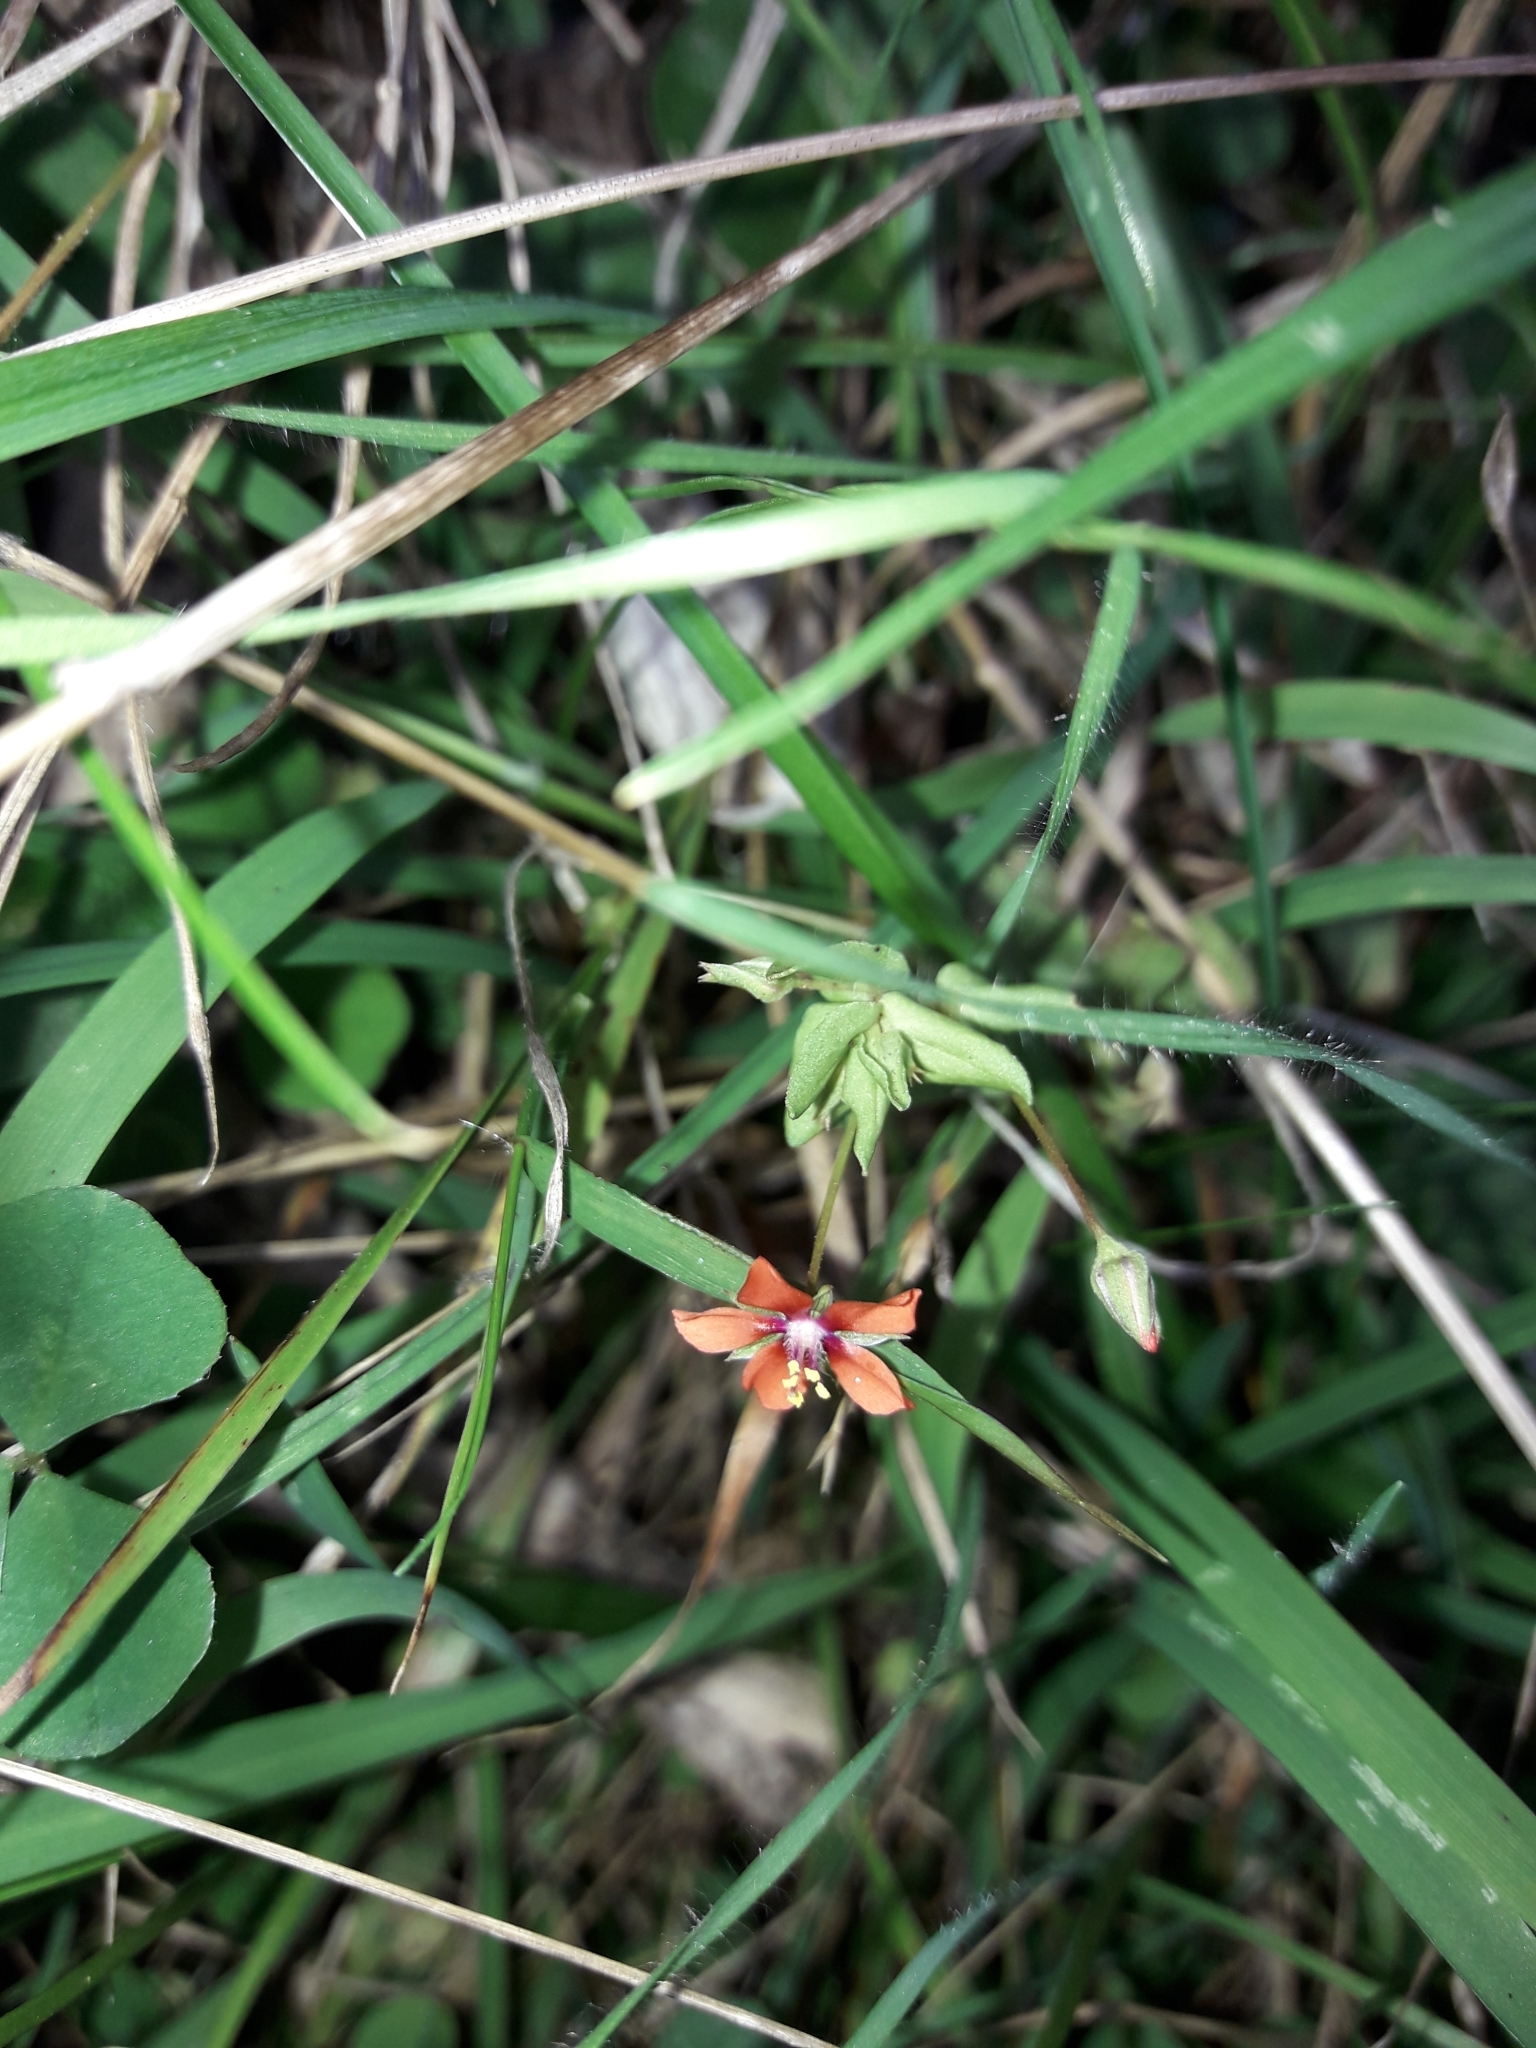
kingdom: Plantae
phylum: Tracheophyta
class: Magnoliopsida
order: Ericales
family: Primulaceae
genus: Lysimachia
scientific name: Lysimachia arvensis
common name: Scarlet pimpernel
